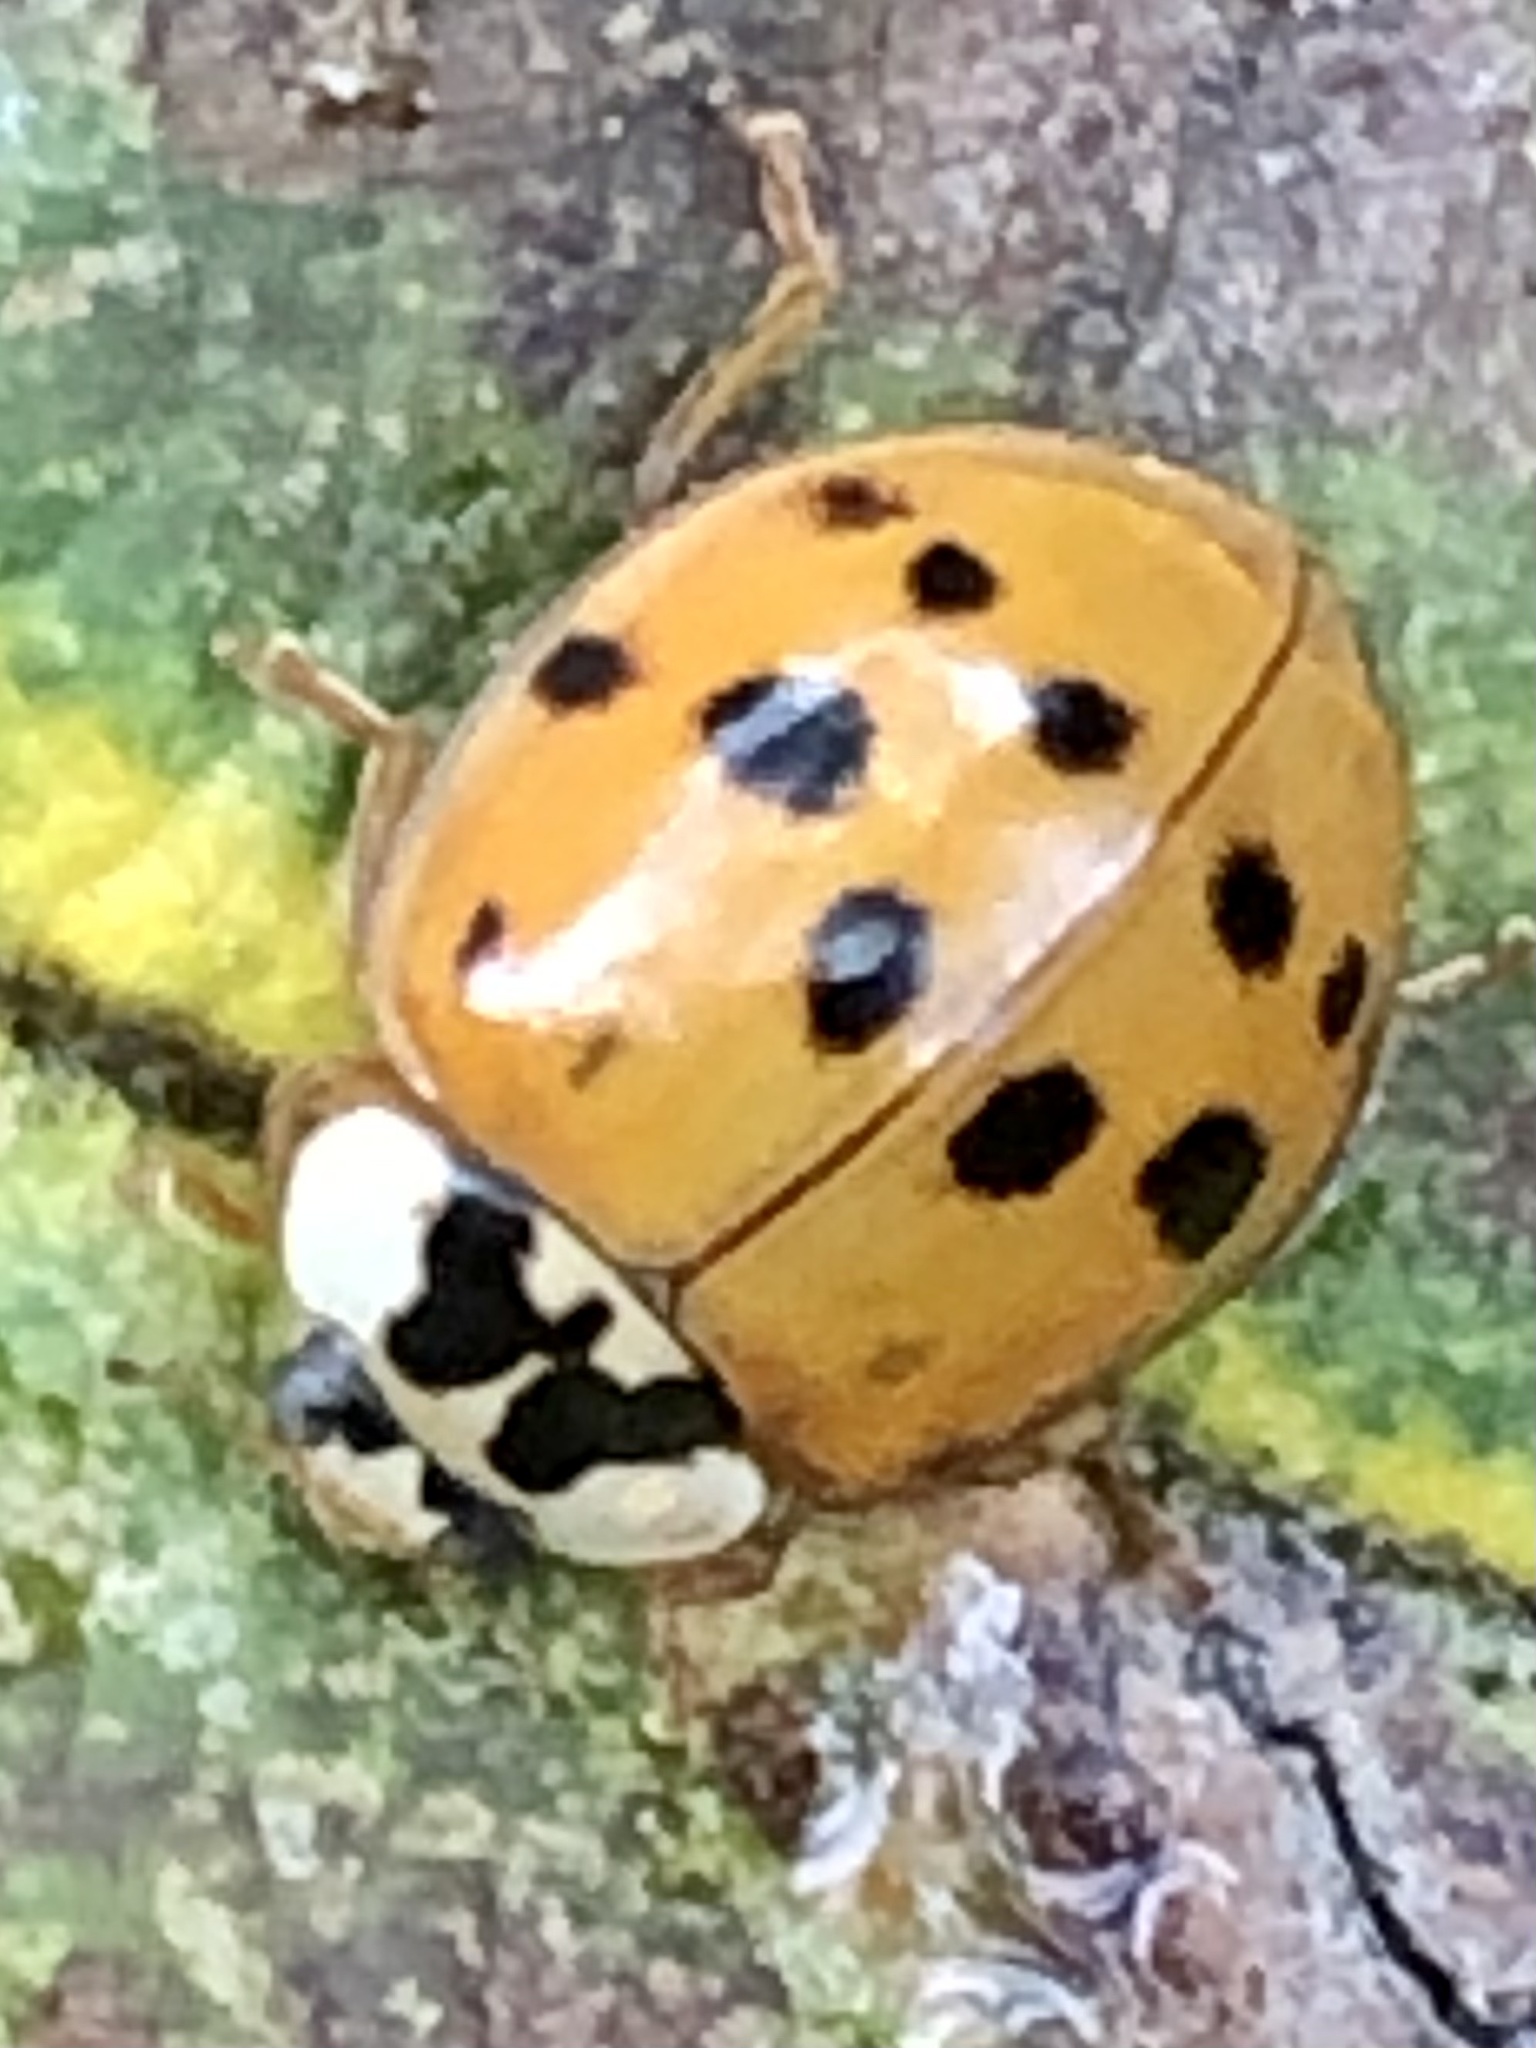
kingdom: Animalia
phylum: Arthropoda
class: Insecta
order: Coleoptera
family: Coccinellidae
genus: Harmonia
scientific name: Harmonia axyridis
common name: Harlequin ladybird
